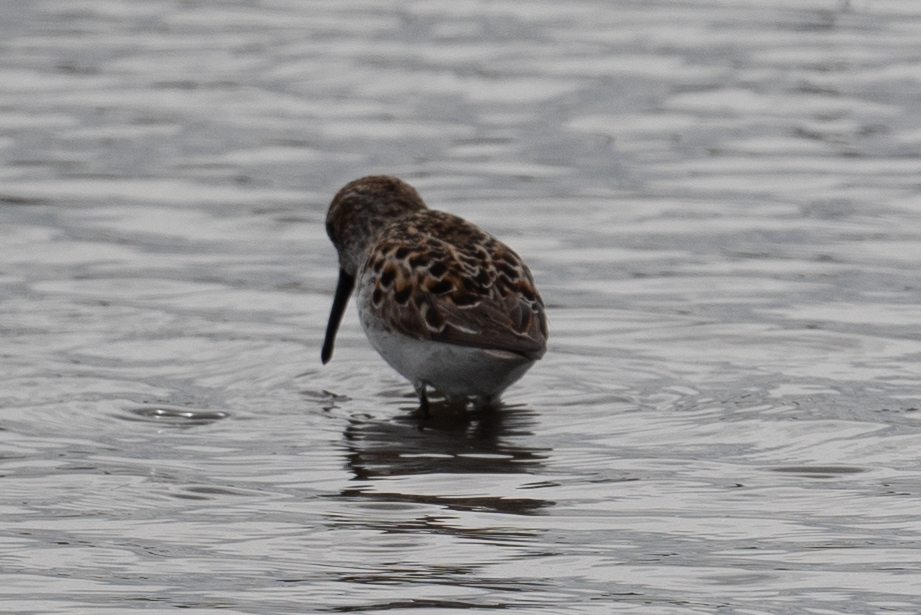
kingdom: Animalia
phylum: Chordata
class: Aves
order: Charadriiformes
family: Scolopacidae
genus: Calidris
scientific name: Calidris mauri
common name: Western sandpiper
